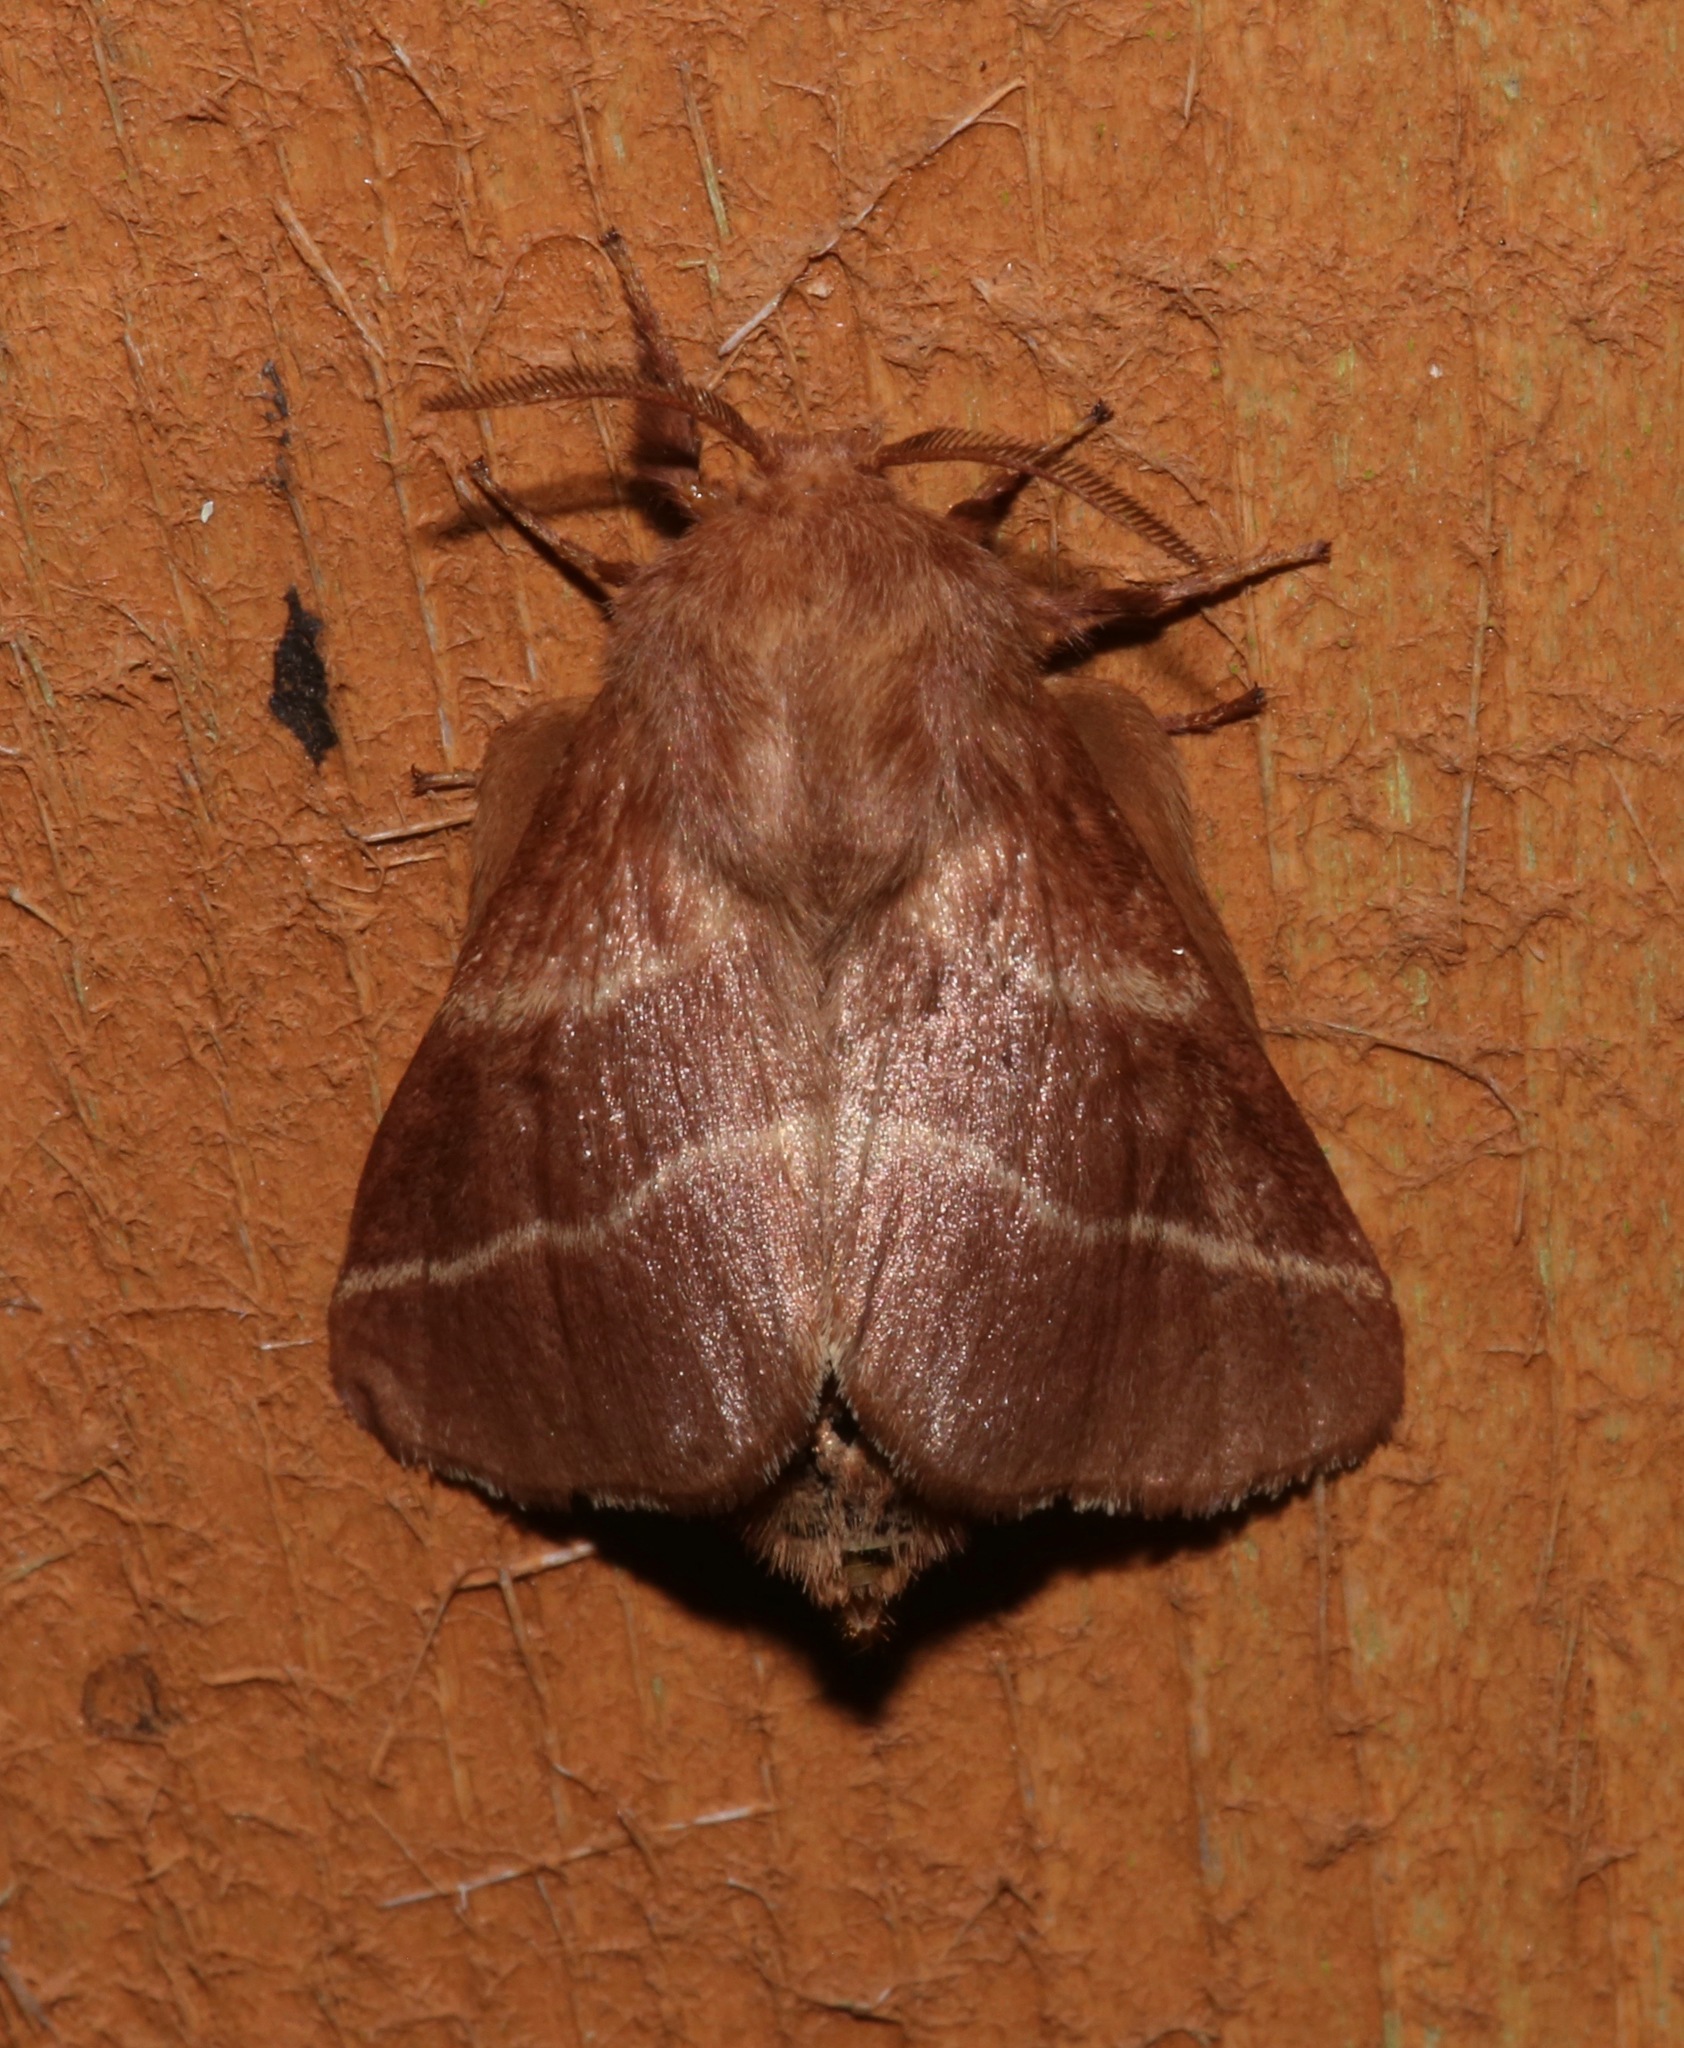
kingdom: Animalia
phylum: Arthropoda
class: Insecta
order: Lepidoptera
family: Lasiocampidae
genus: Malacosoma
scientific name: Malacosoma americana
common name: Eastern tent caterpillar moth
